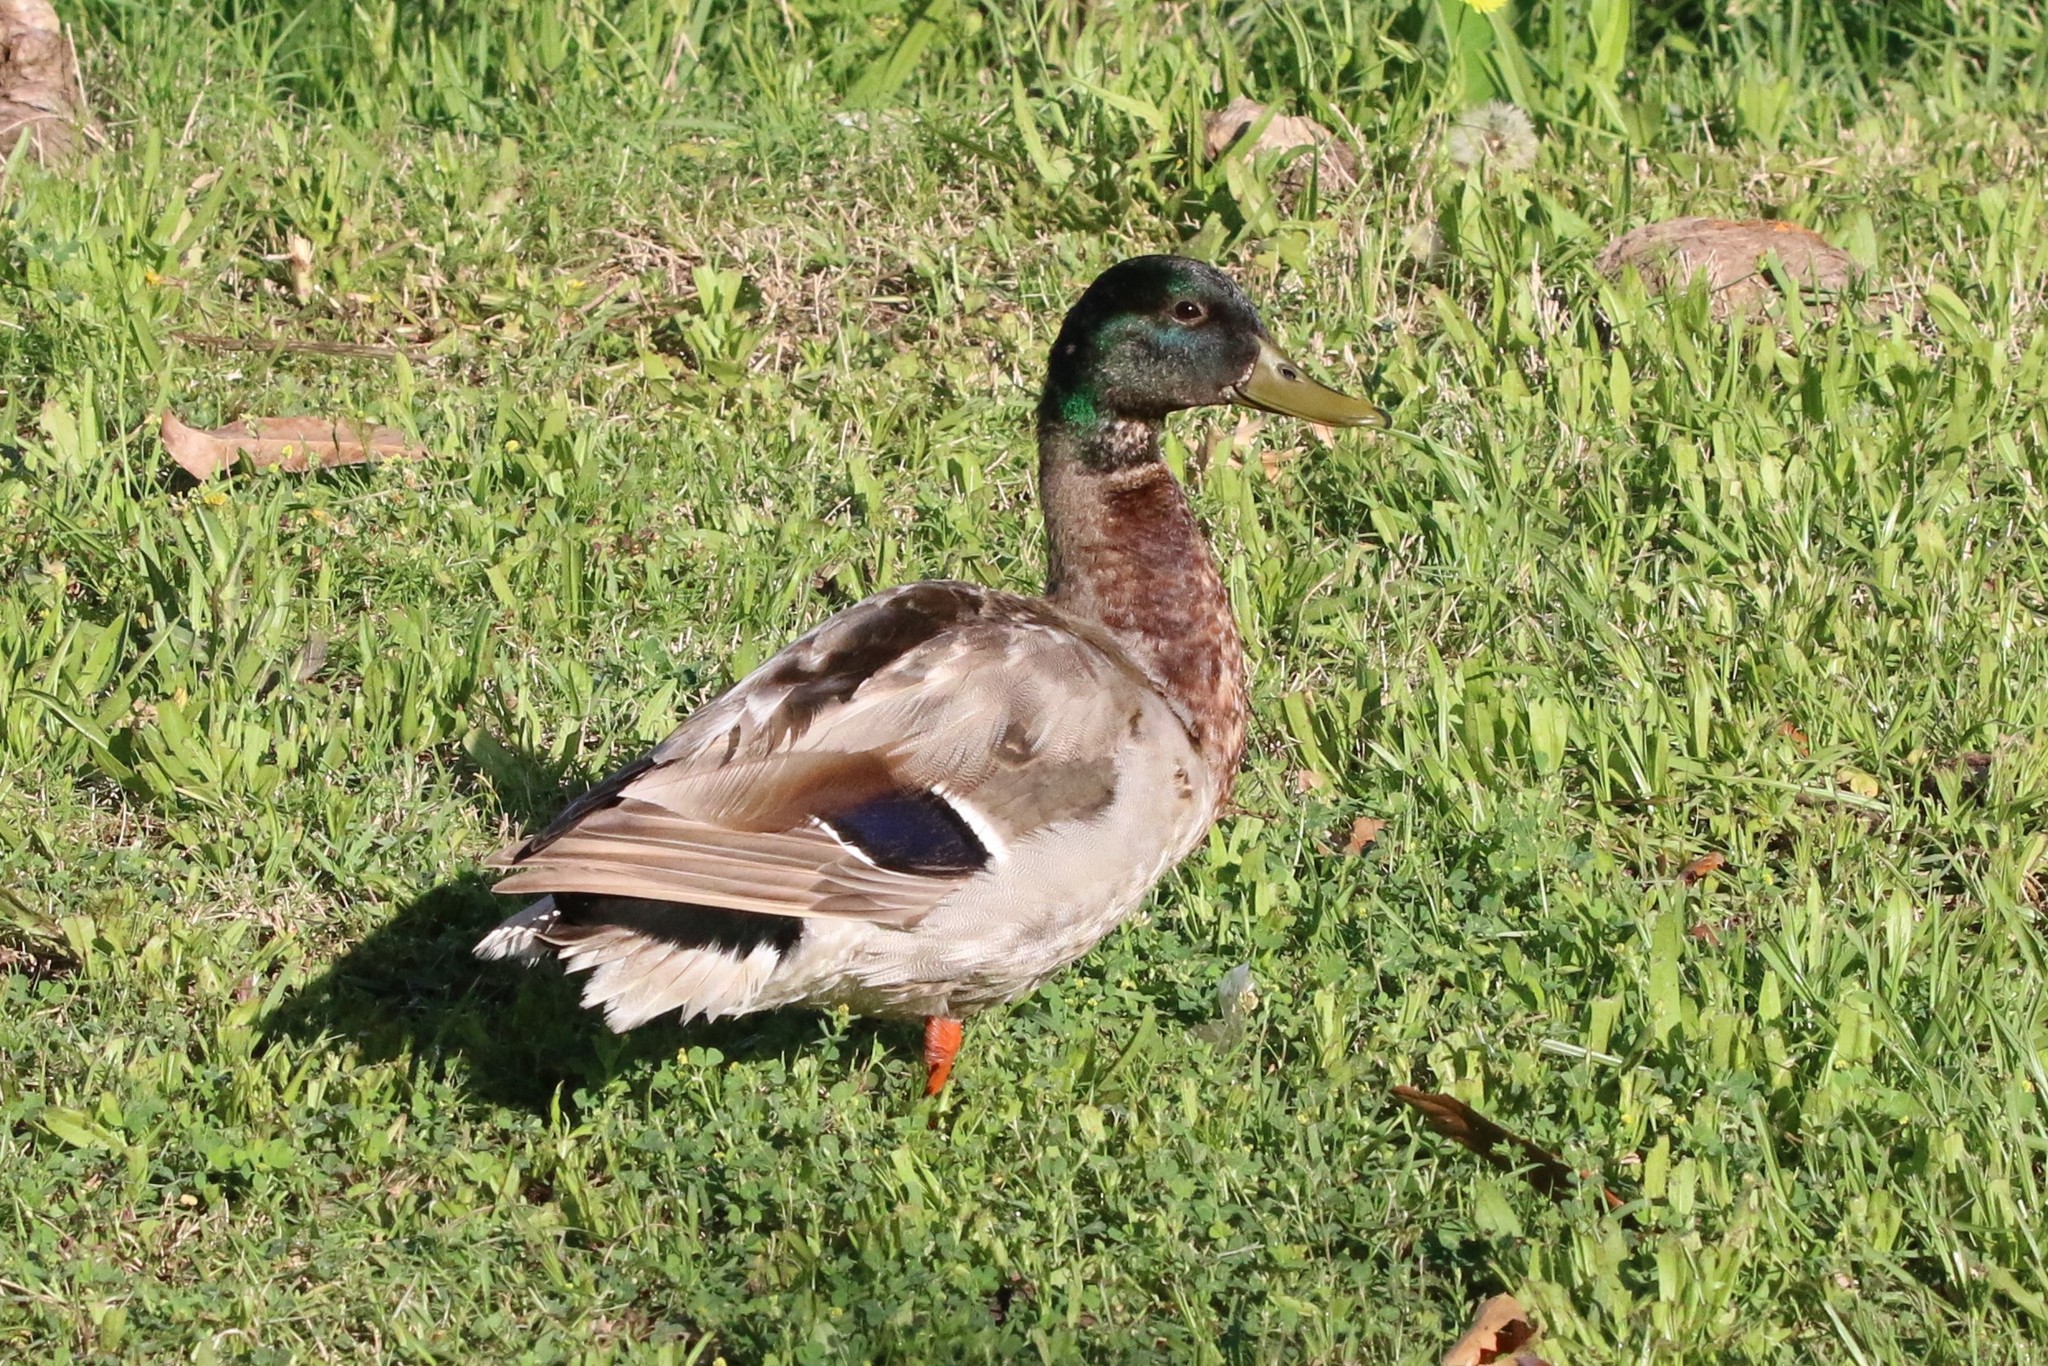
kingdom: Animalia
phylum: Chordata
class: Aves
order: Anseriformes
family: Anatidae
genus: Anas
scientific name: Anas platyrhynchos
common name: Mallard
